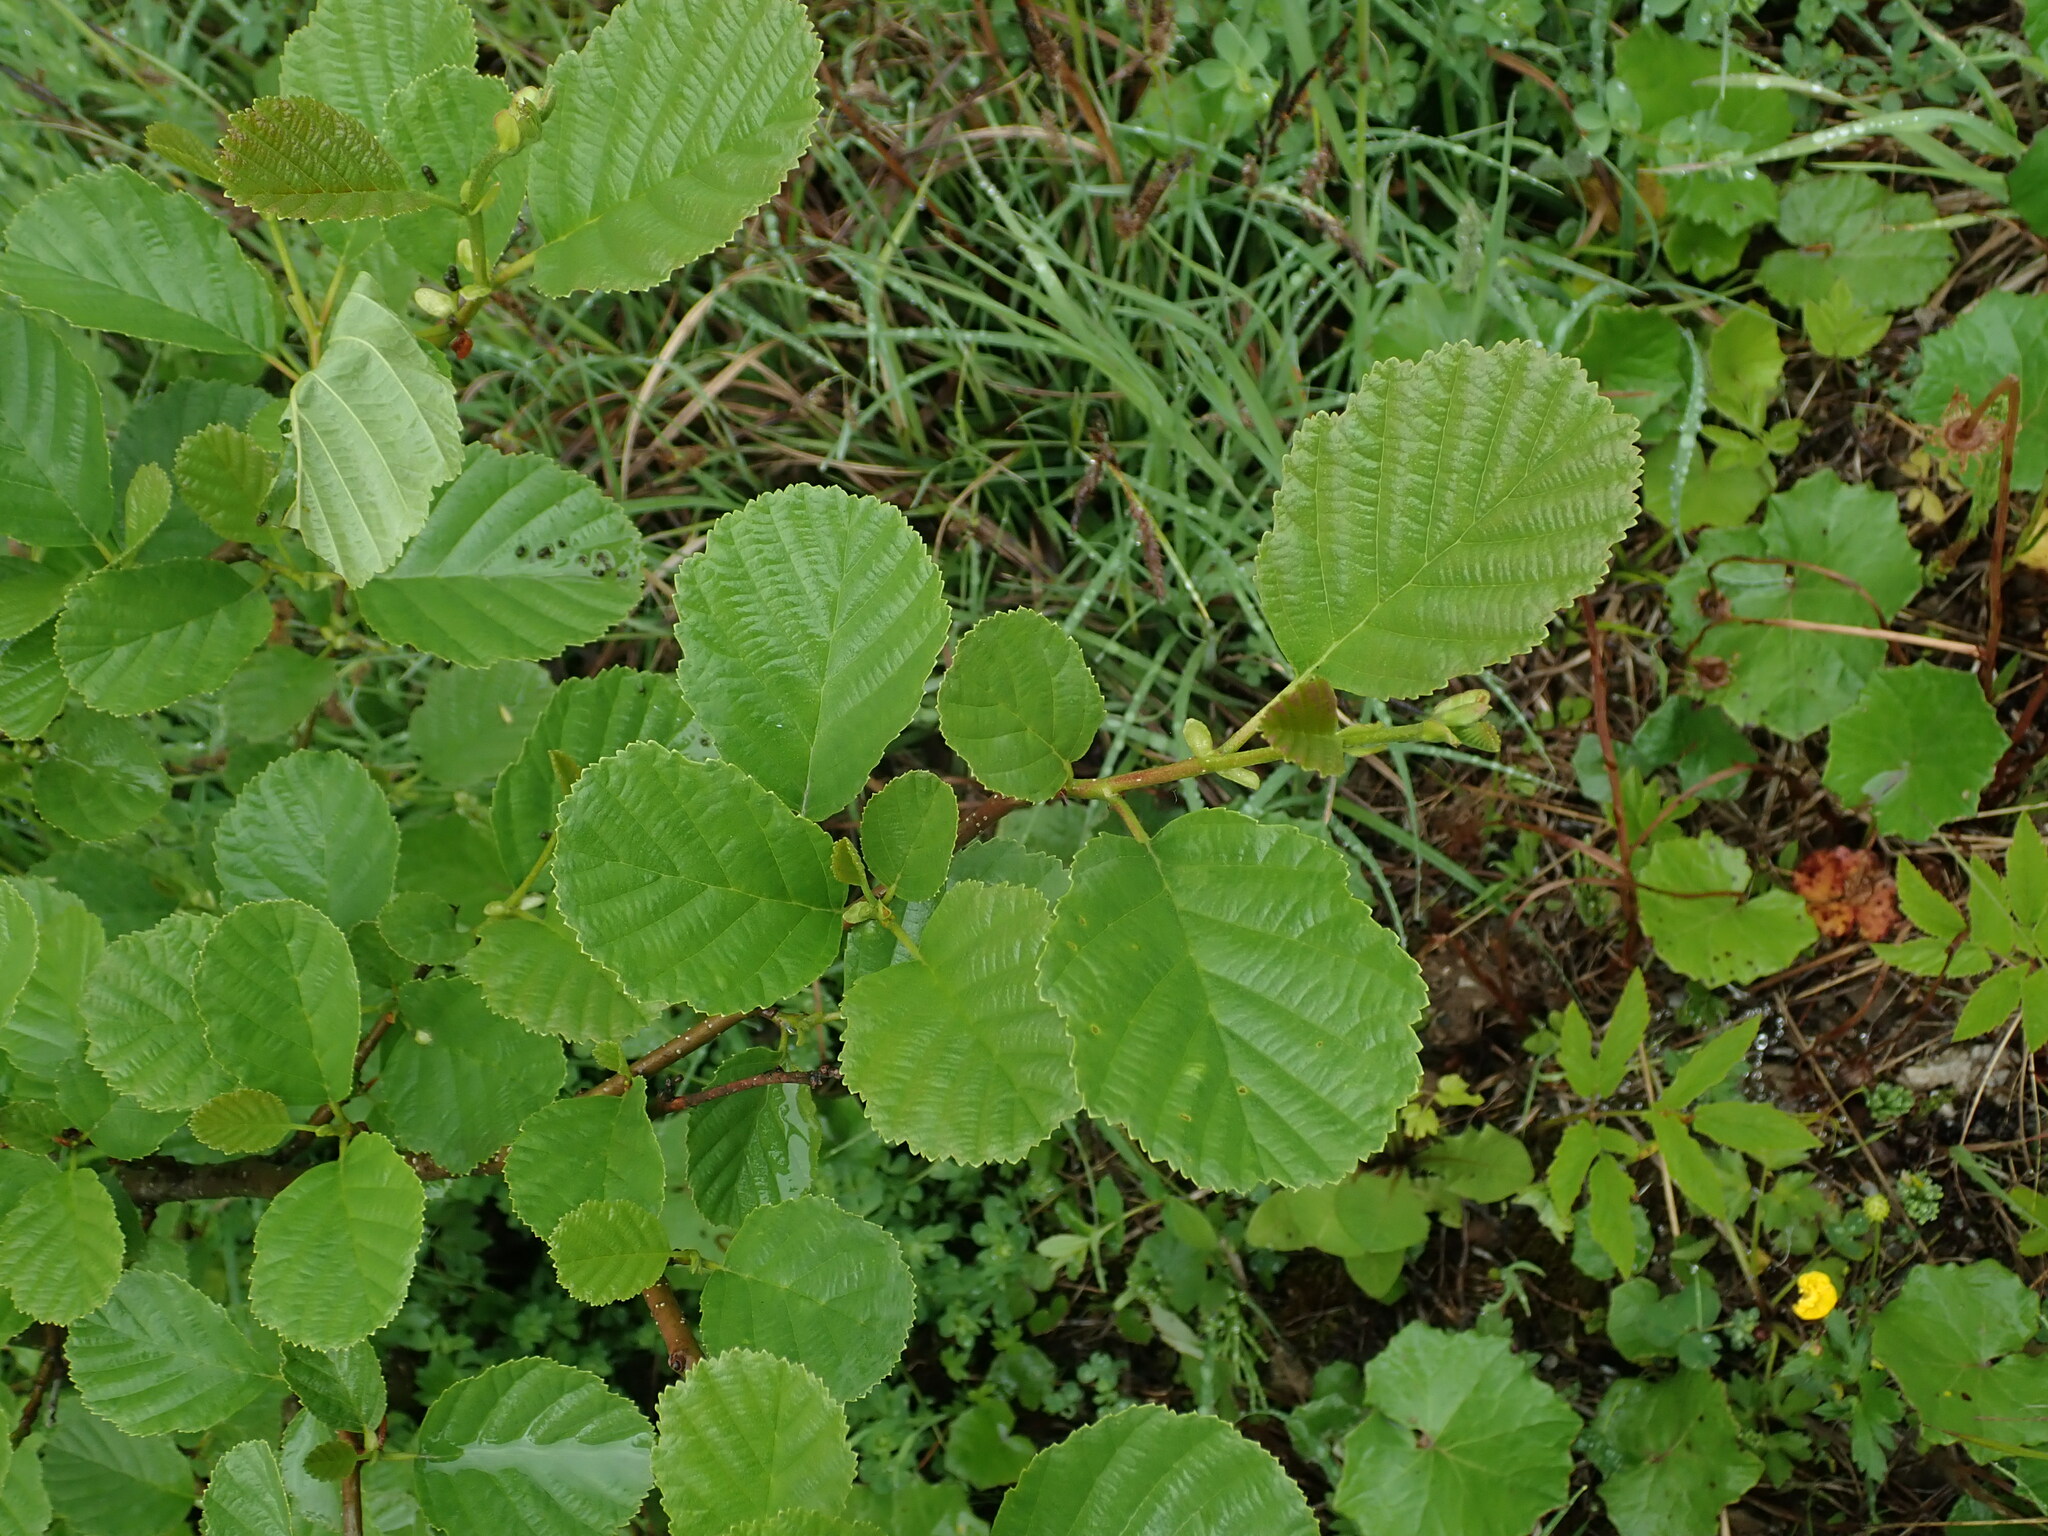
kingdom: Plantae
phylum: Tracheophyta
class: Magnoliopsida
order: Fagales
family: Betulaceae
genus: Alnus
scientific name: Alnus glutinosa
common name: Black alder
